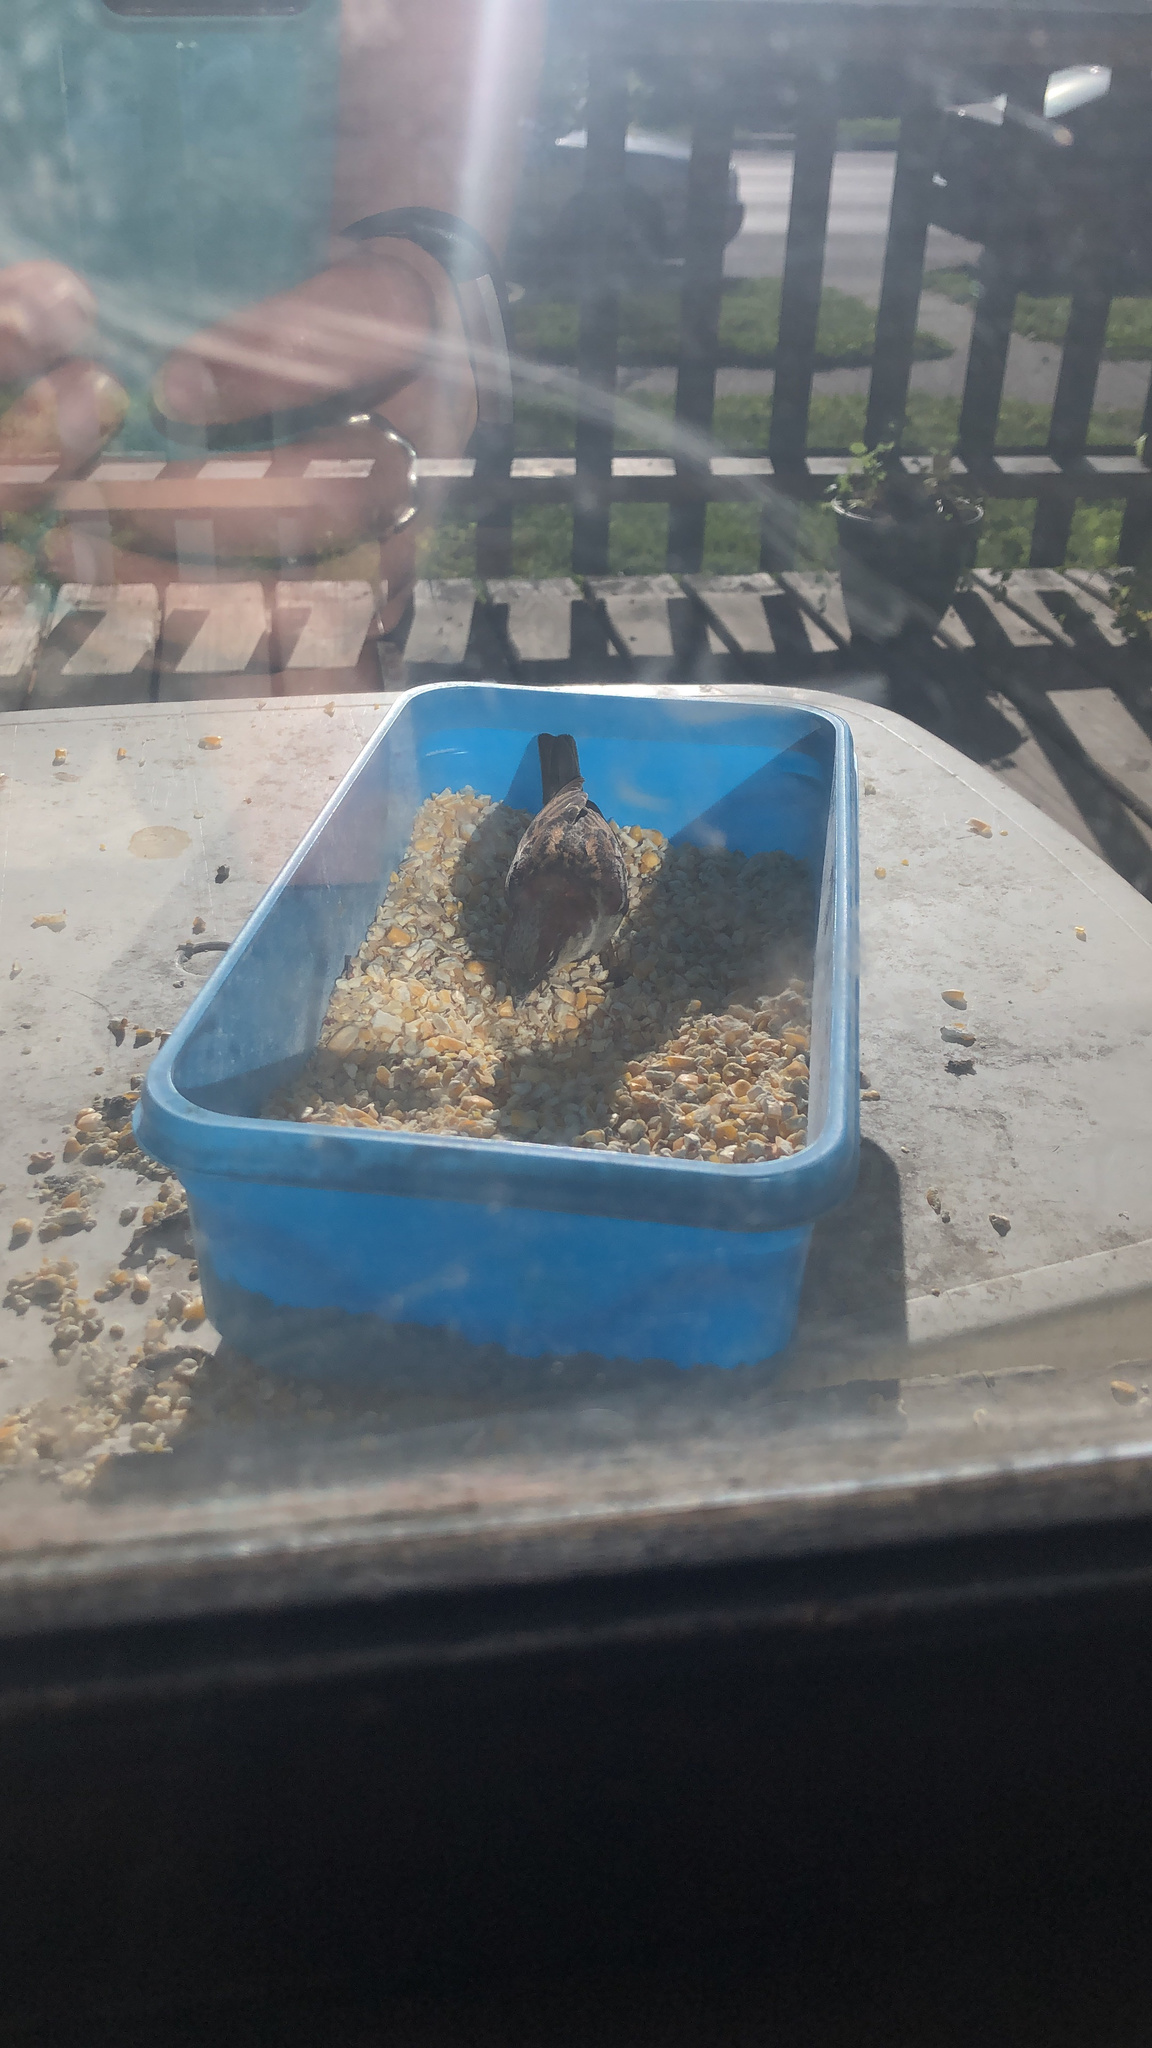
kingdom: Animalia
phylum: Chordata
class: Aves
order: Passeriformes
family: Passeridae
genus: Passer
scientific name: Passer domesticus
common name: House sparrow
